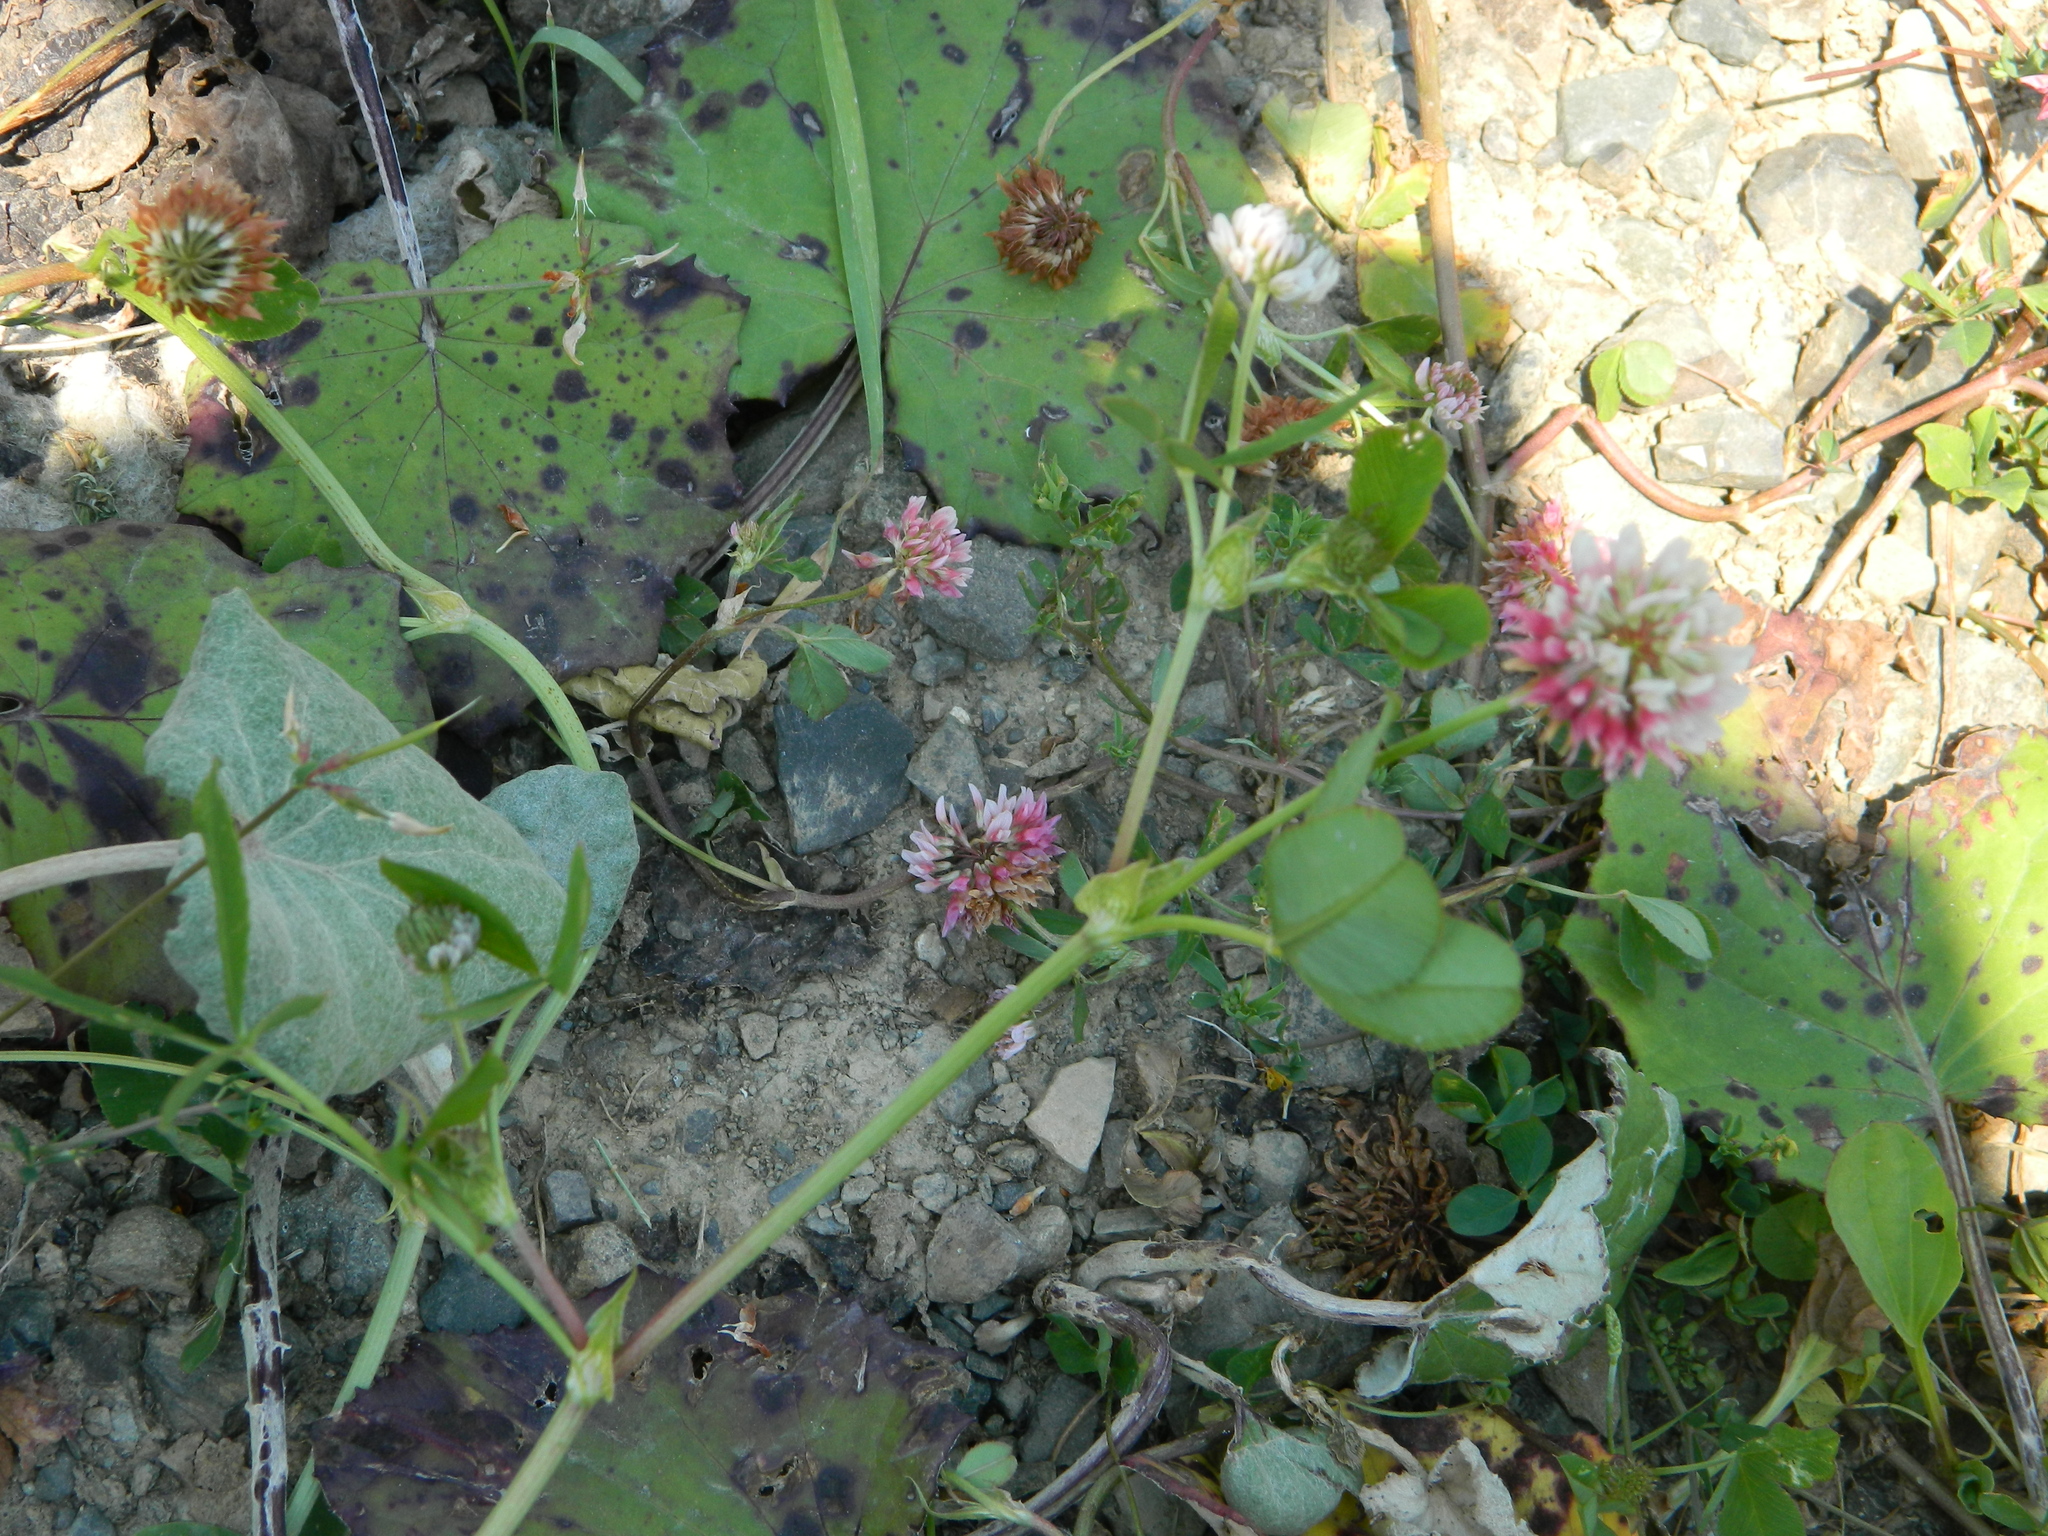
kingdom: Plantae
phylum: Tracheophyta
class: Magnoliopsida
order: Fabales
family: Fabaceae
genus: Trifolium
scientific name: Trifolium hybridum
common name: Alsike clover
